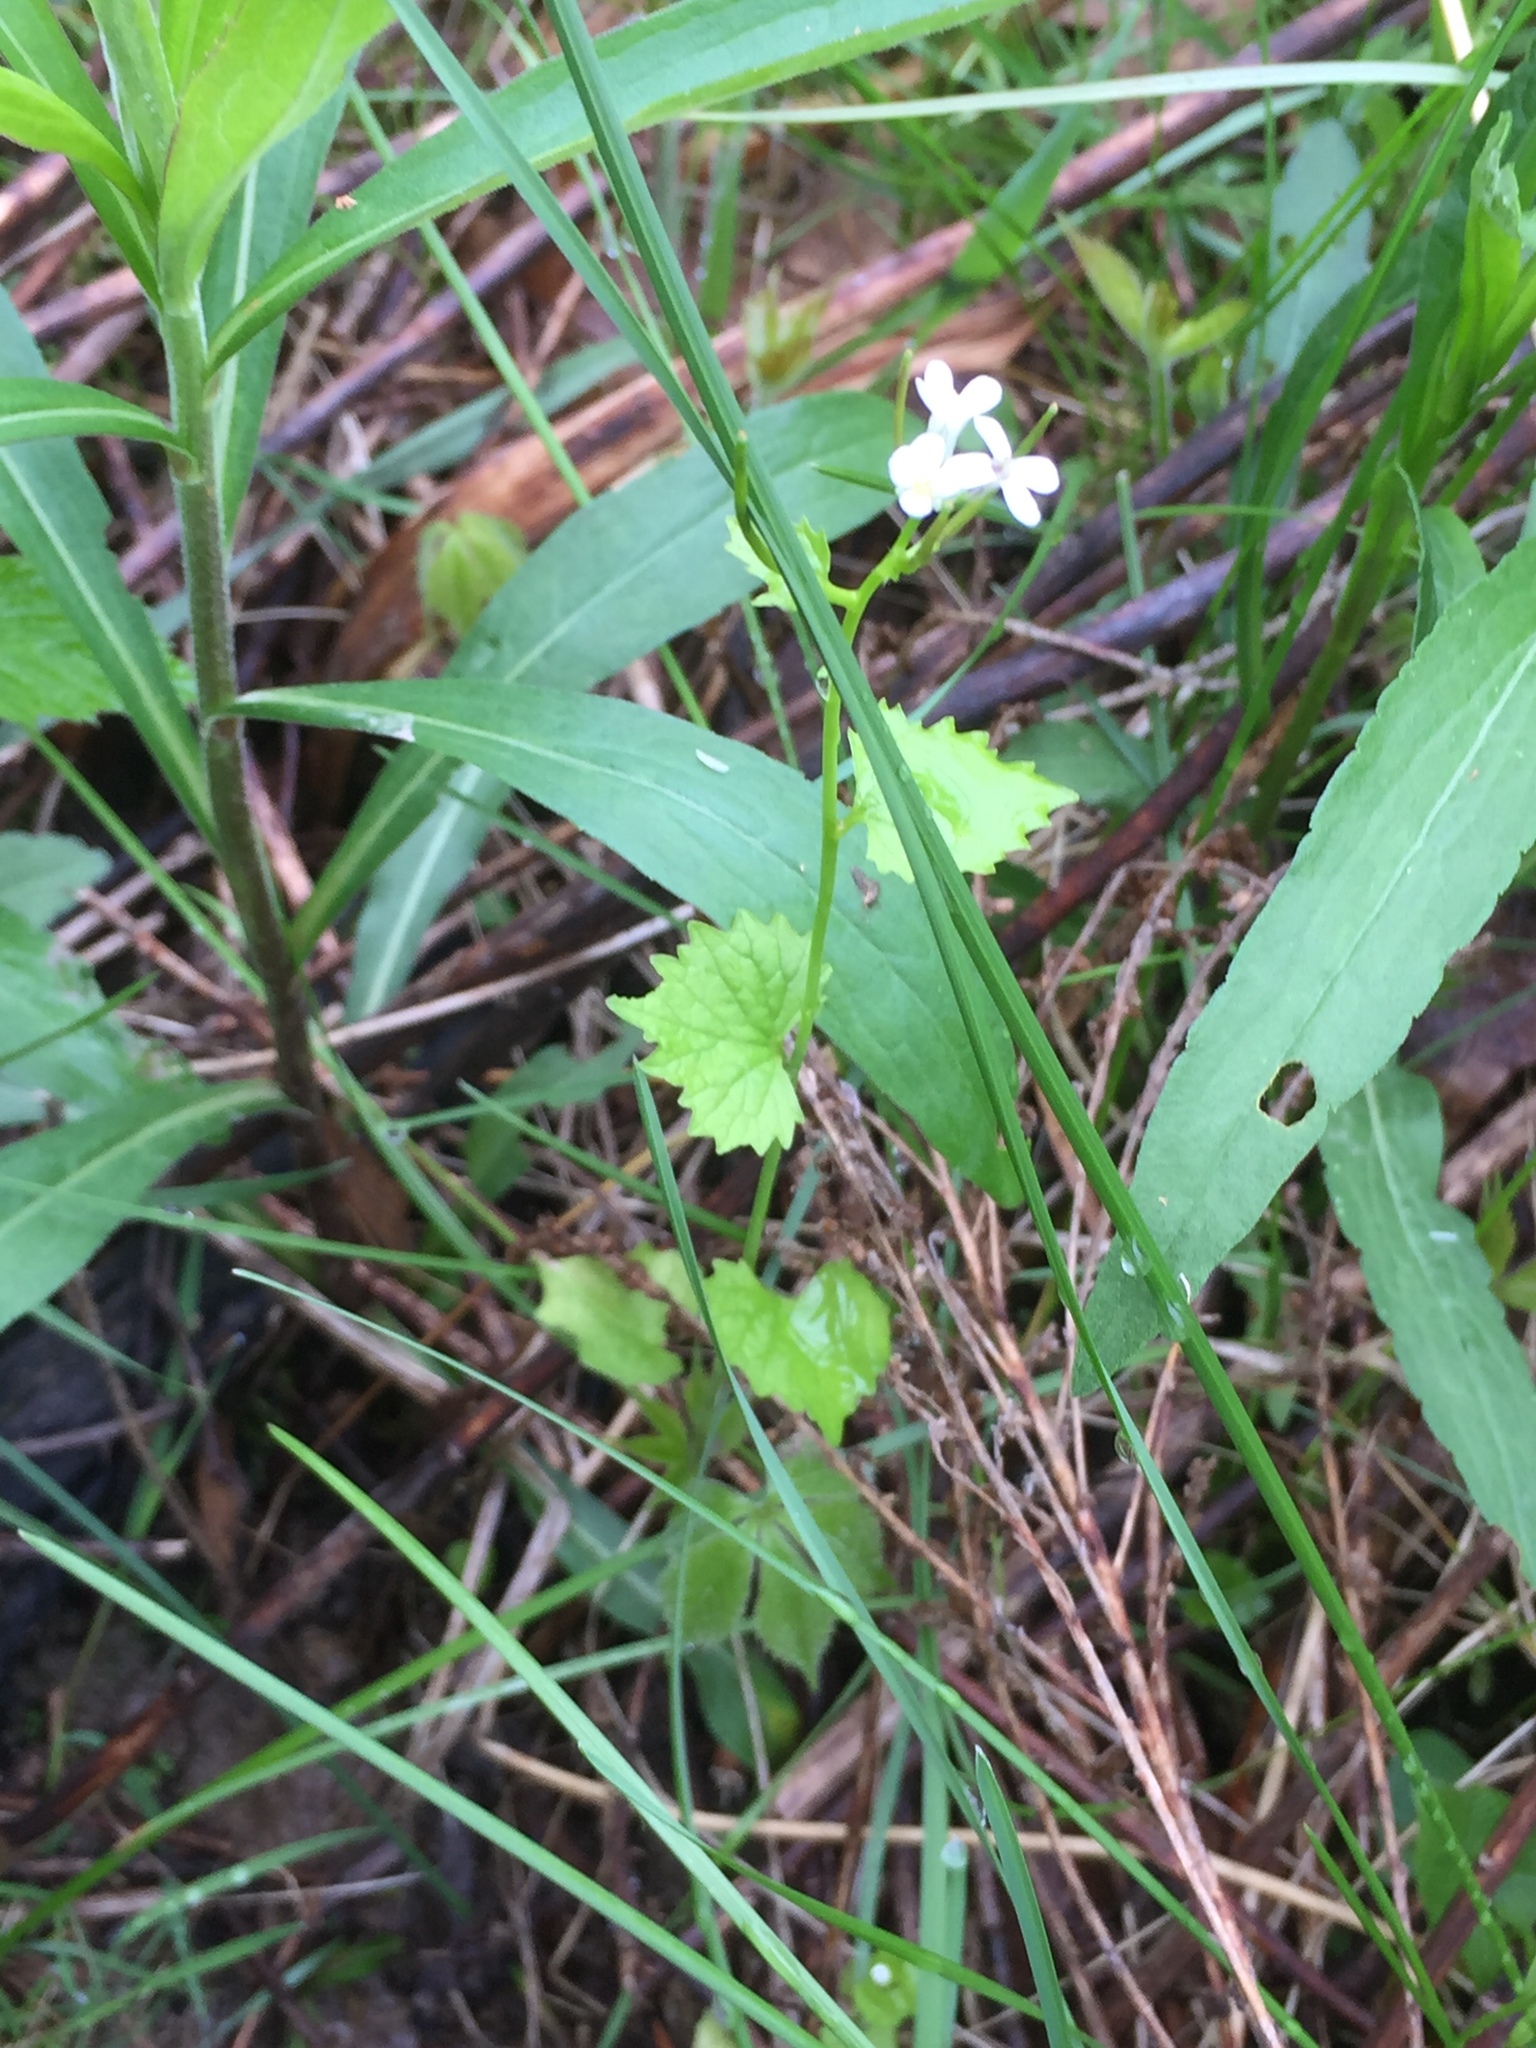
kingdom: Plantae
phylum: Tracheophyta
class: Magnoliopsida
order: Brassicales
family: Brassicaceae
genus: Alliaria
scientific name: Alliaria petiolata
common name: Garlic mustard
